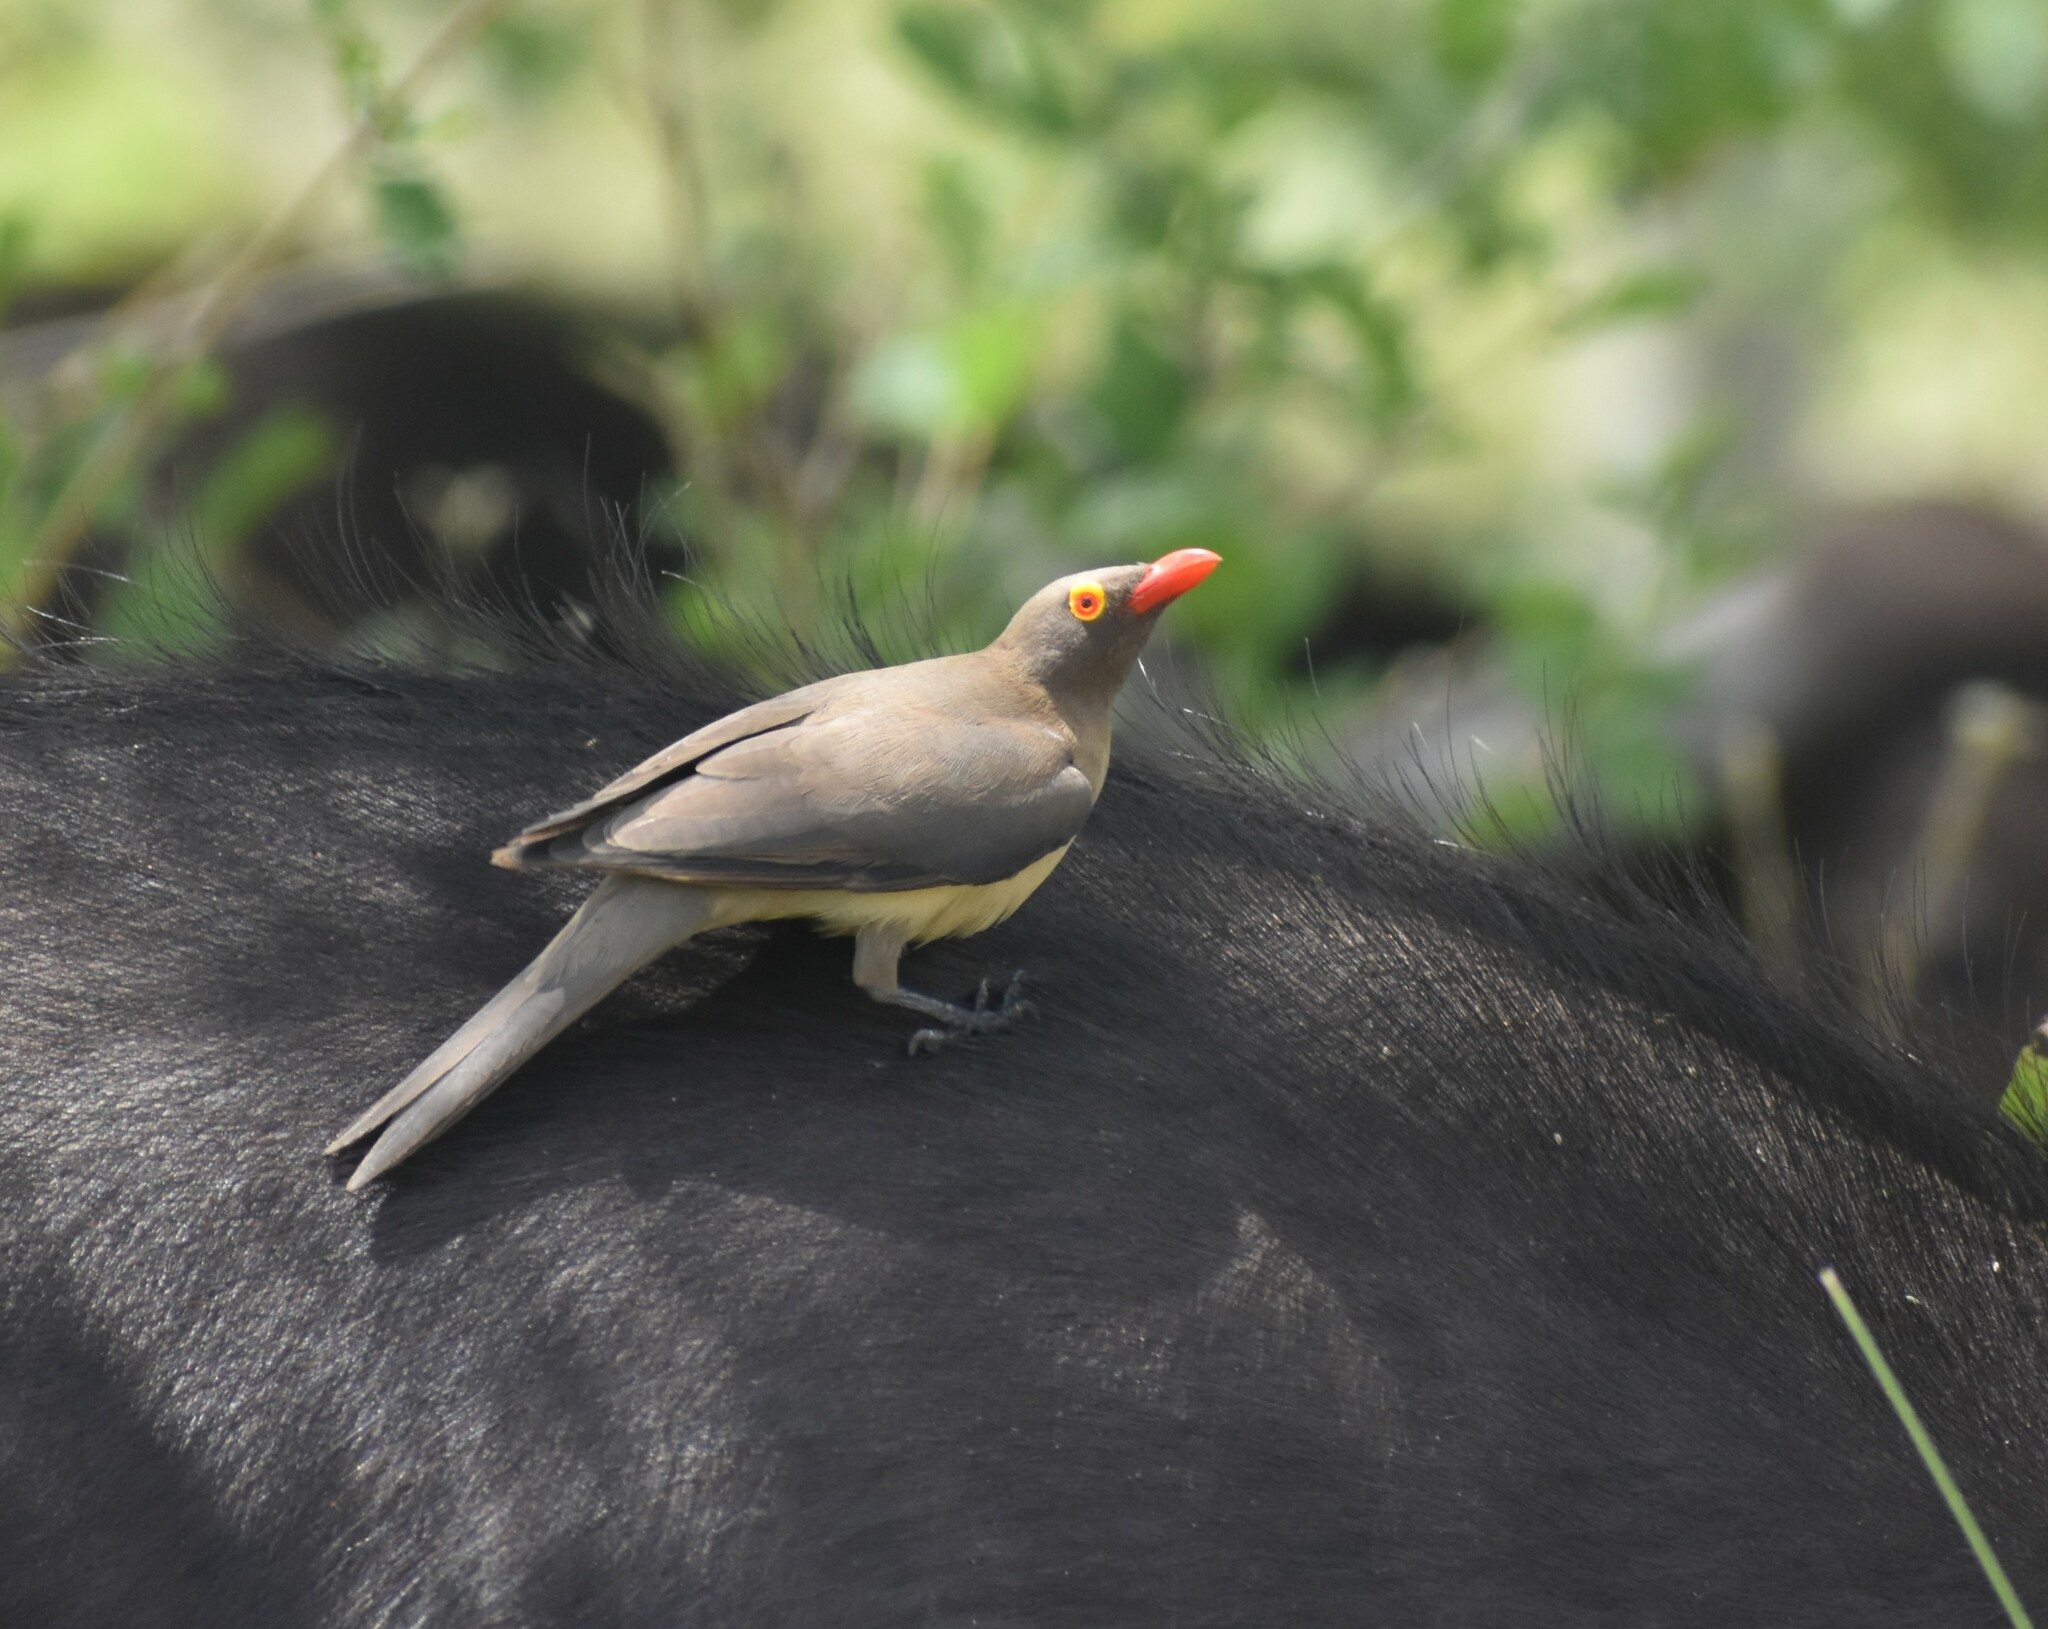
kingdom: Animalia
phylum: Chordata
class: Aves
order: Passeriformes
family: Buphagidae
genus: Buphagus
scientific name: Buphagus erythrorhynchus
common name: Red-billed oxpecker
